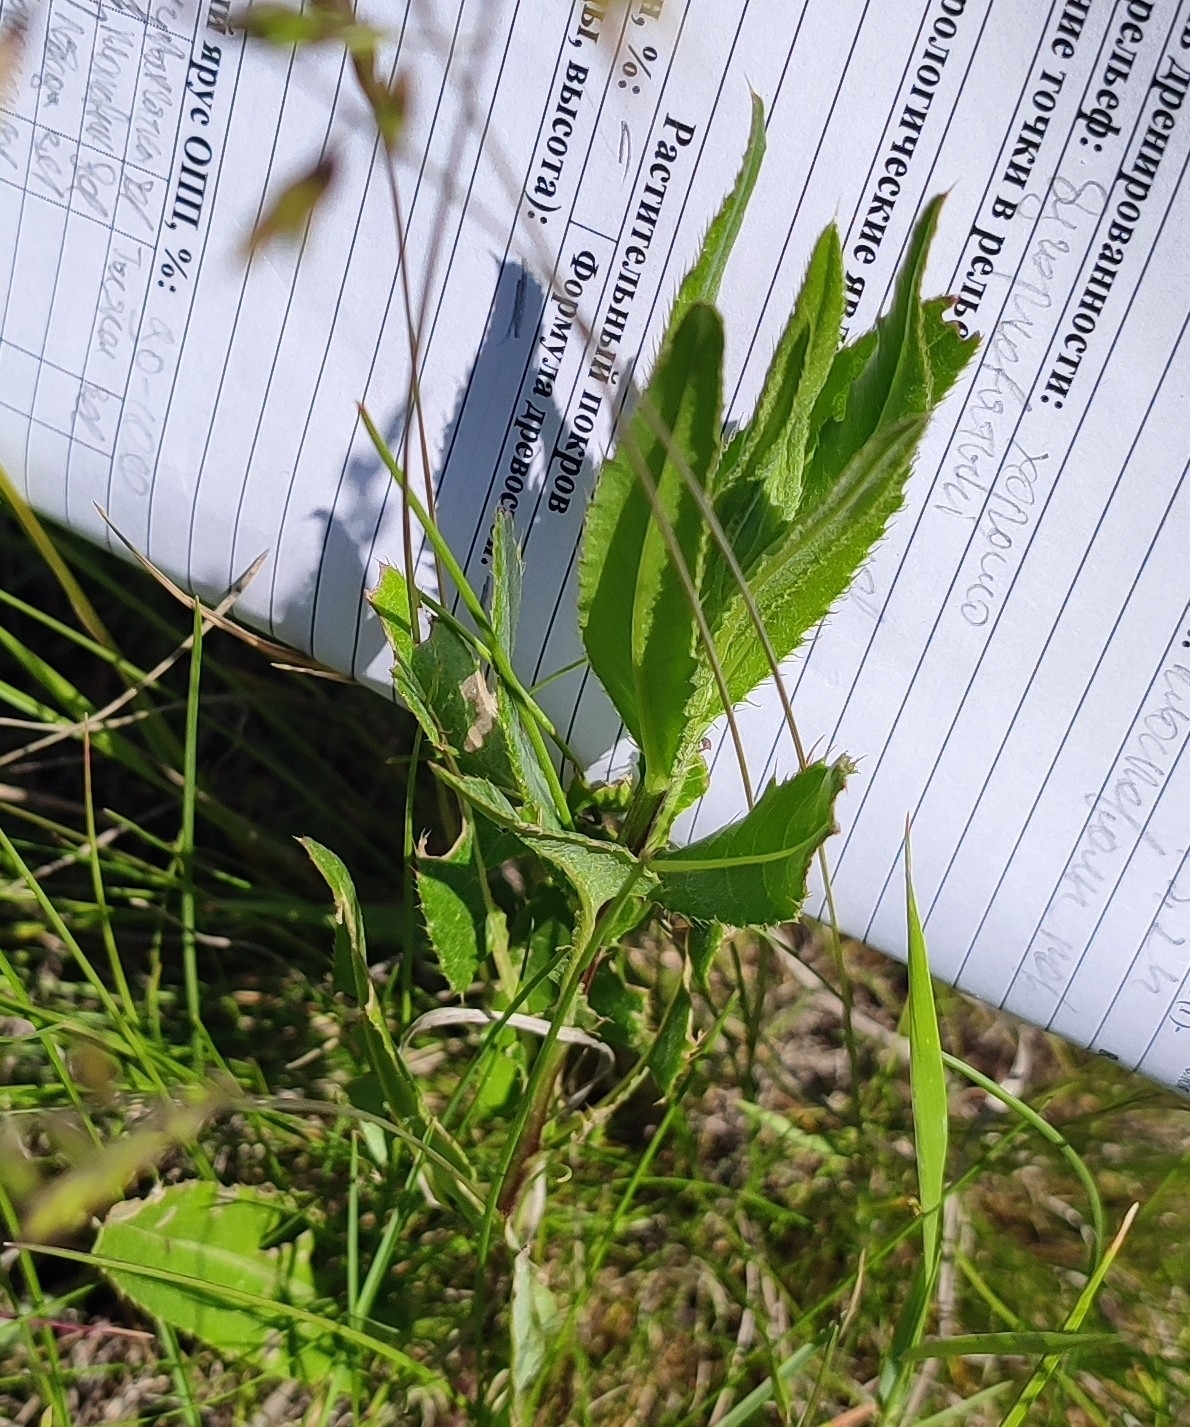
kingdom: Plantae
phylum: Tracheophyta
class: Magnoliopsida
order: Asterales
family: Asteraceae
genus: Cirsium
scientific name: Cirsium arvense
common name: Creeping thistle
